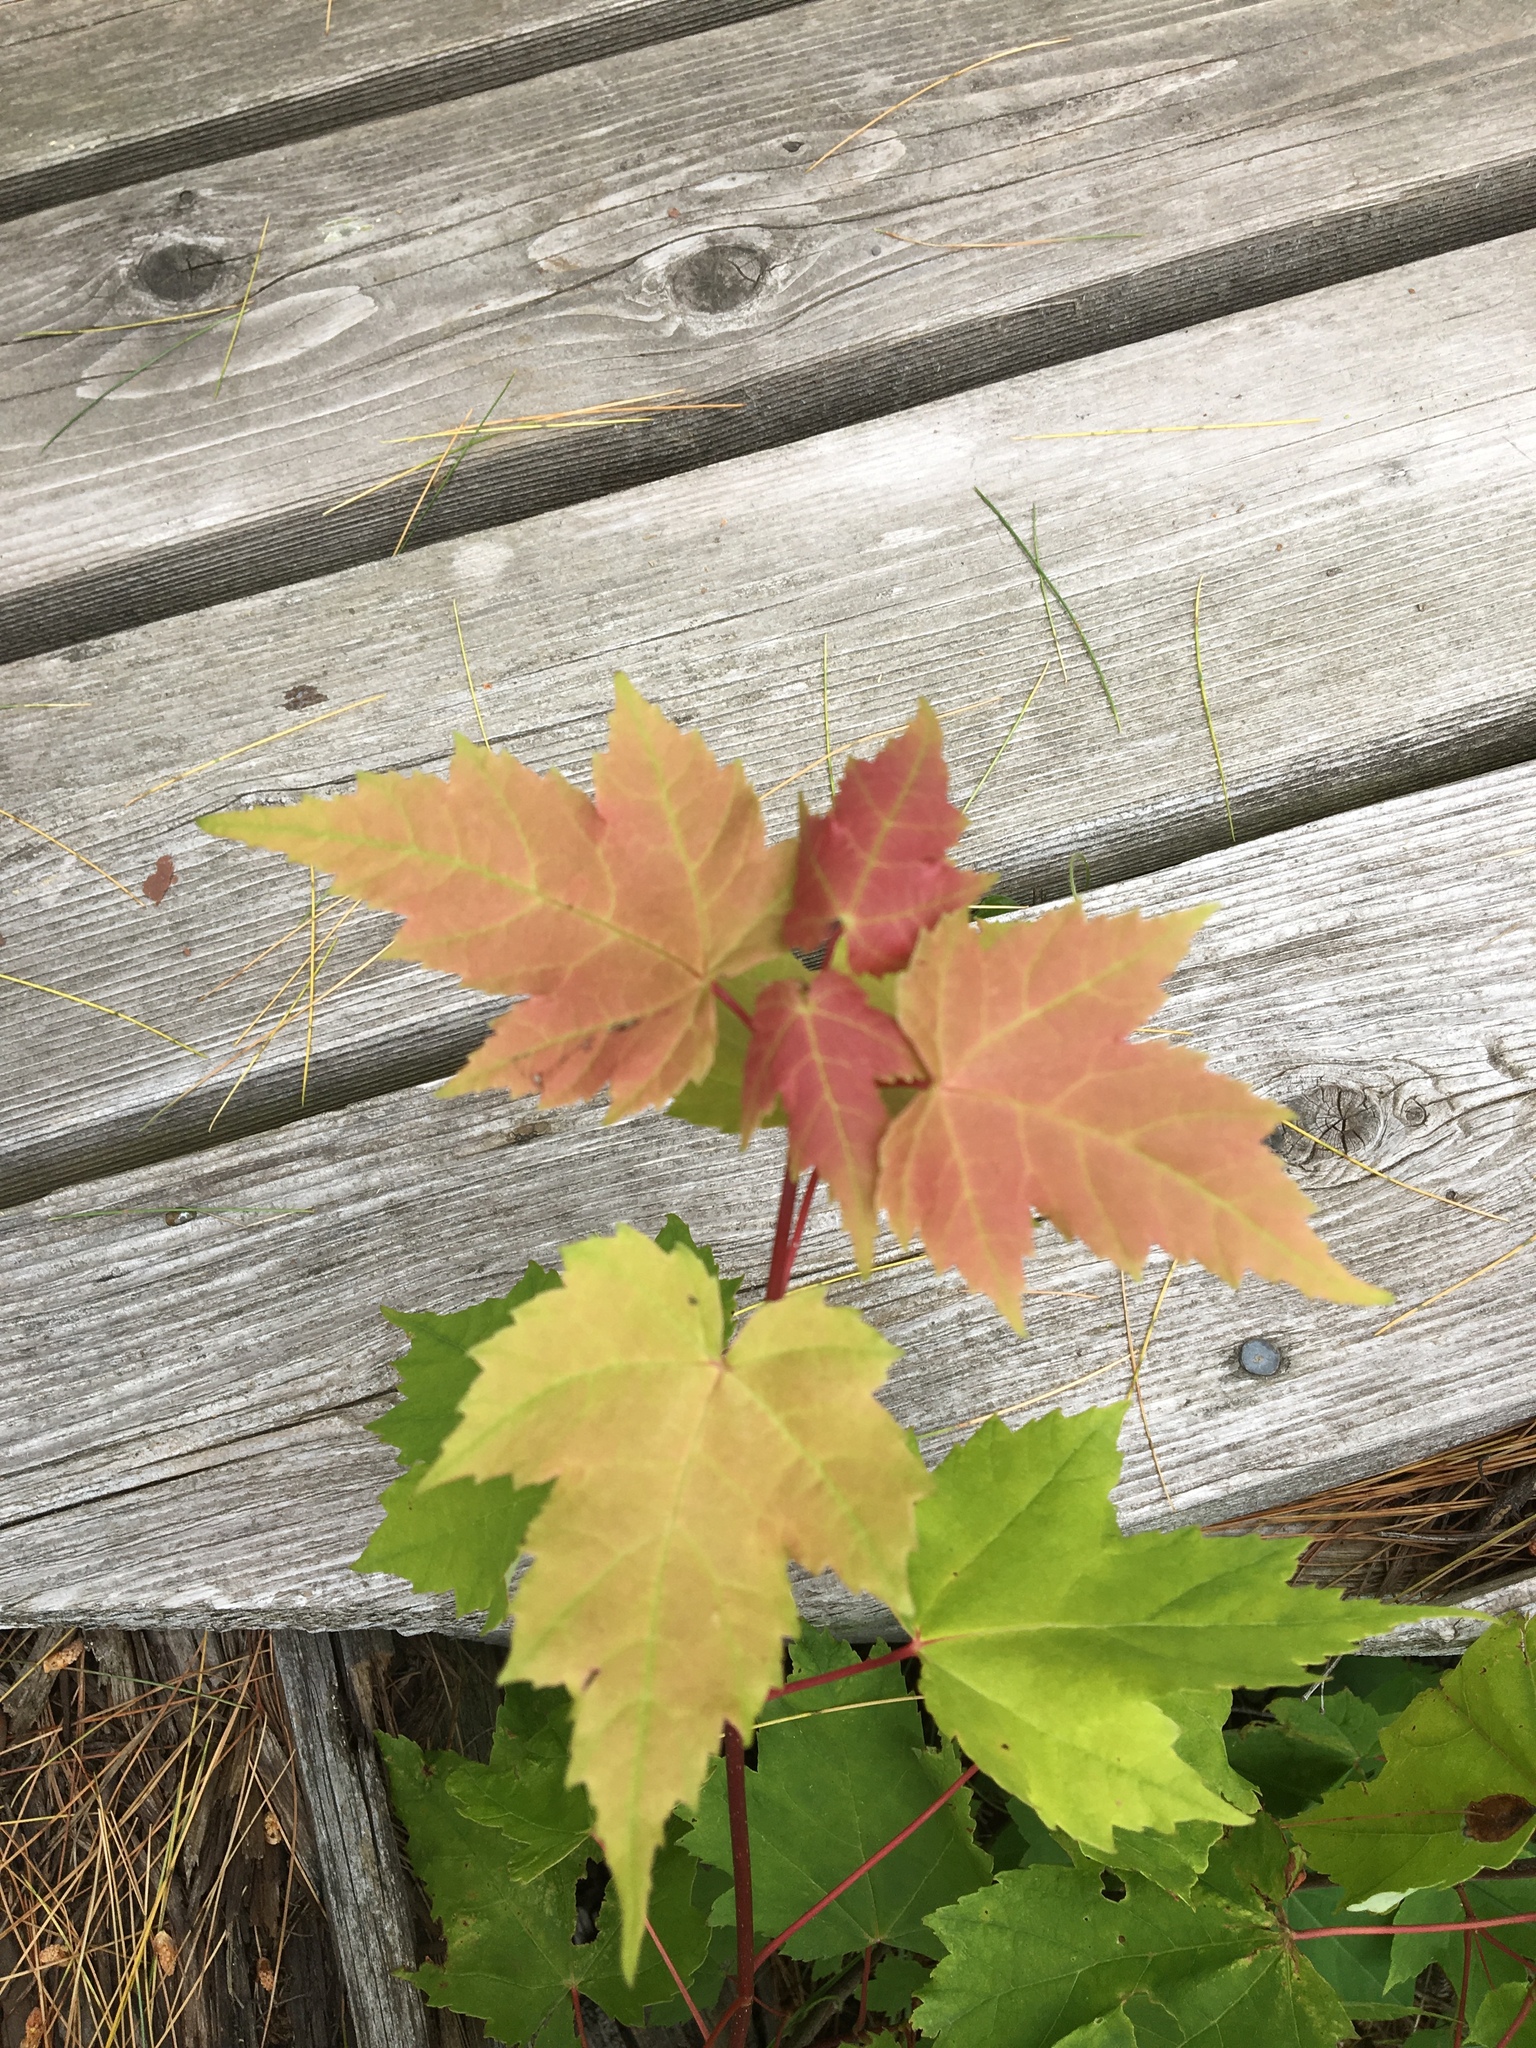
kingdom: Plantae
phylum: Tracheophyta
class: Magnoliopsida
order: Sapindales
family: Sapindaceae
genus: Acer
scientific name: Acer rubrum
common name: Red maple
